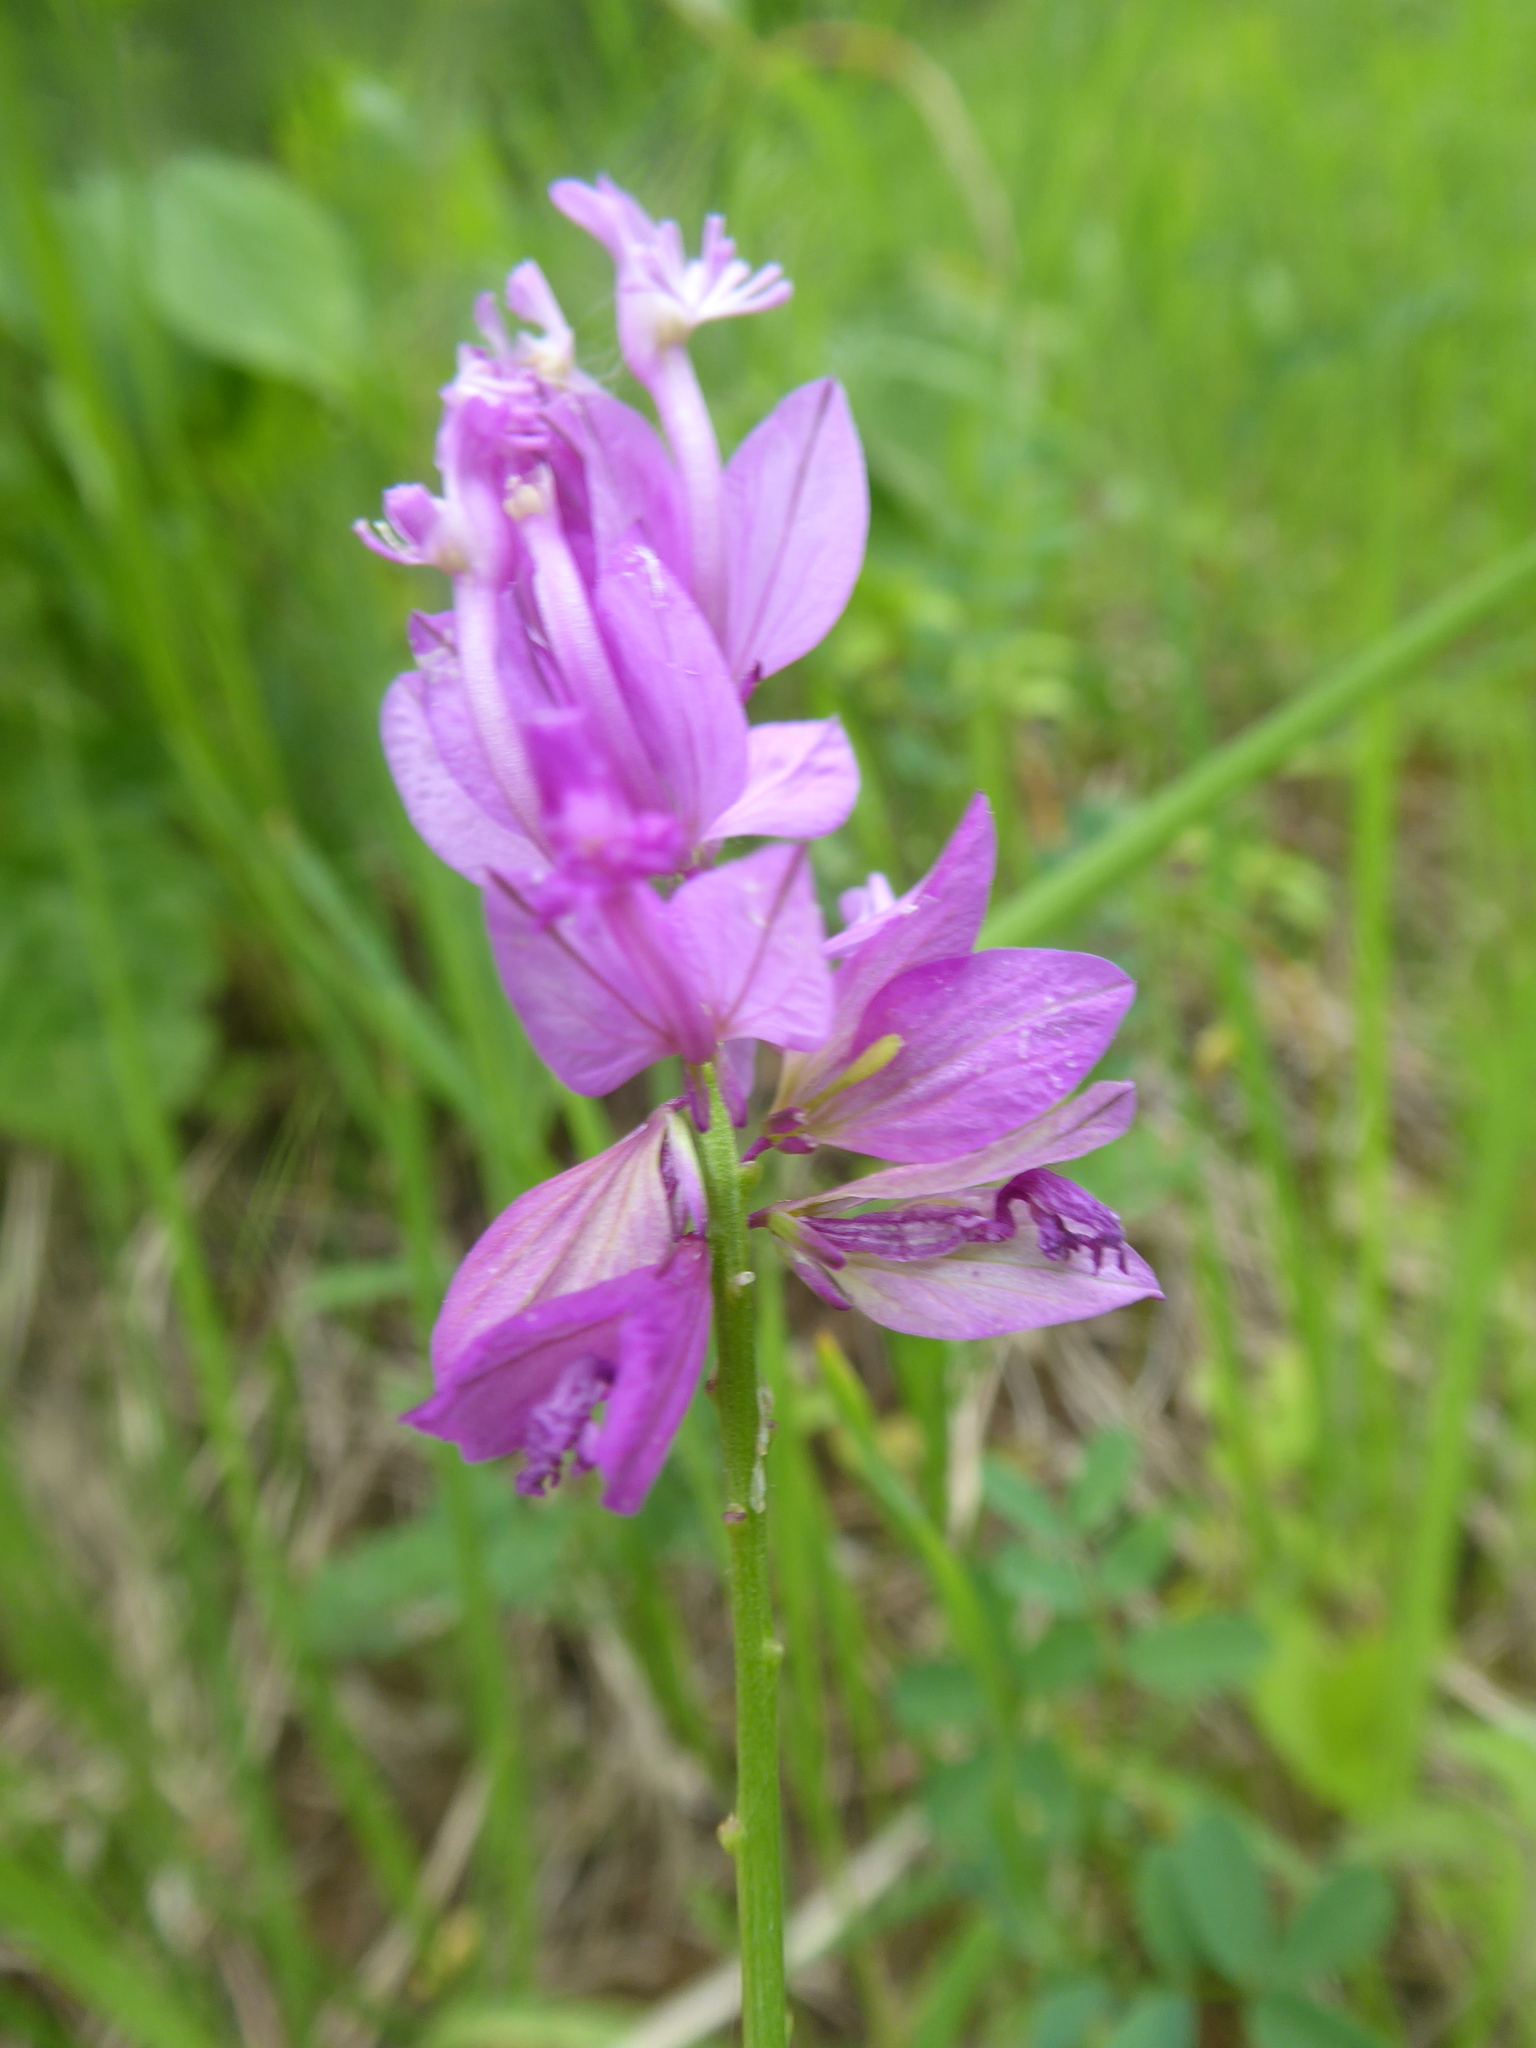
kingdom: Plantae
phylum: Tracheophyta
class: Magnoliopsida
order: Fabales
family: Polygalaceae
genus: Polygala
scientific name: Polygala major
